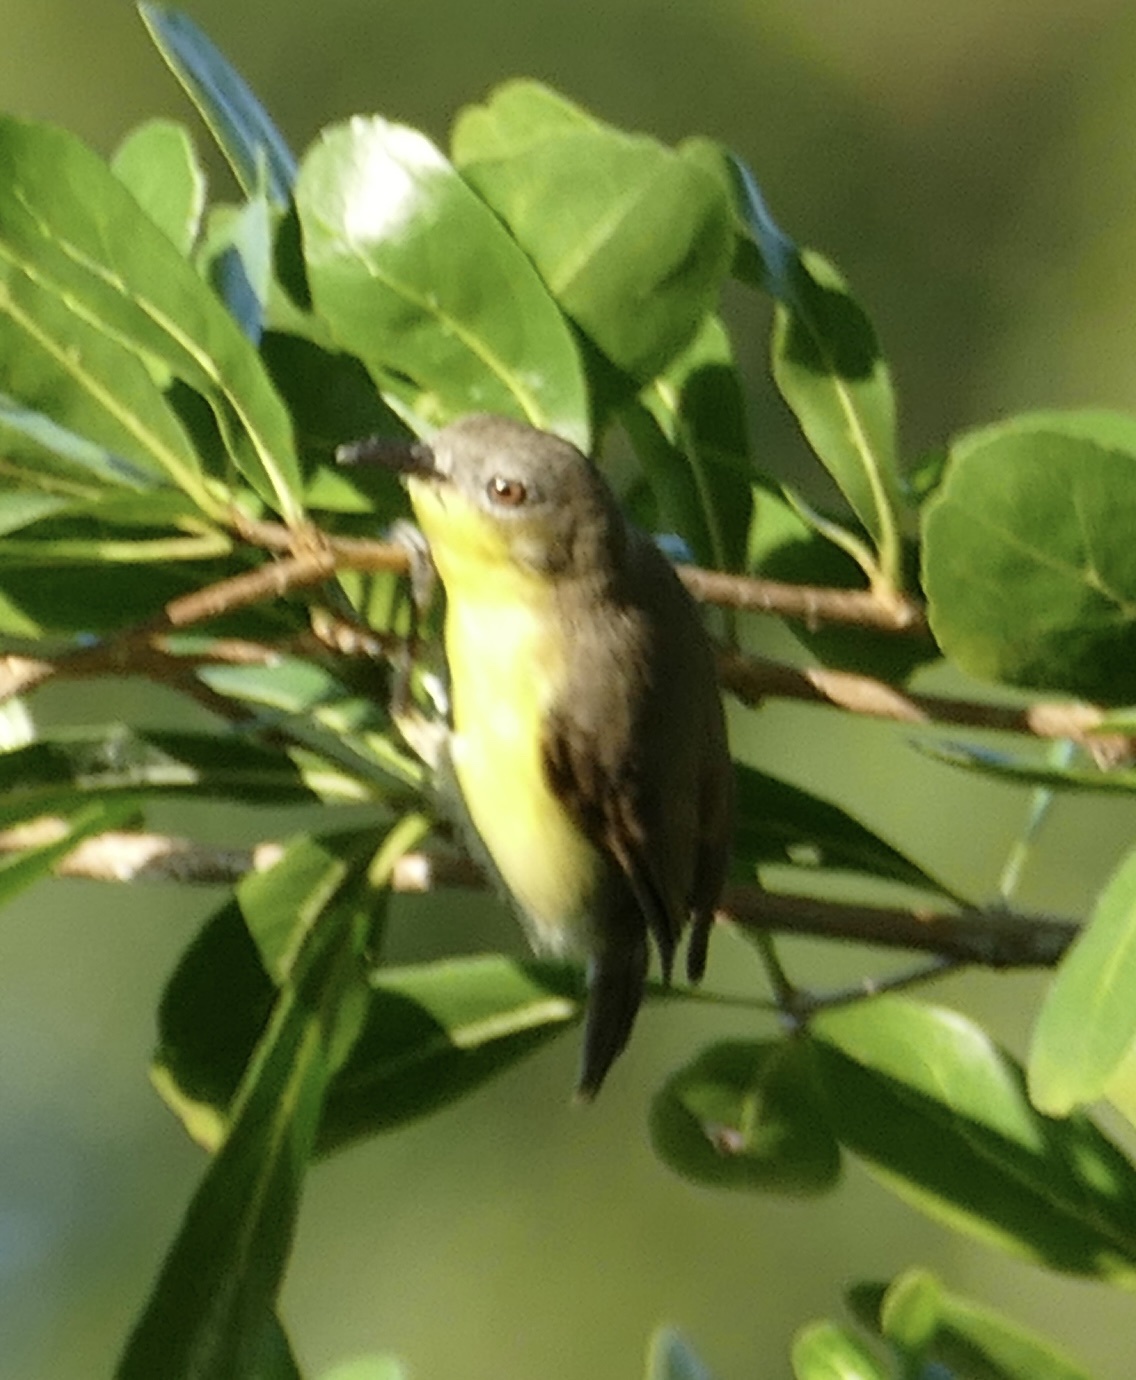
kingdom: Animalia
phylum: Chordata
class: Aves
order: Passeriformes
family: Acanthizidae
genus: Gerygone
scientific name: Gerygone sulphurea
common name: Golden-bellied gerygone
